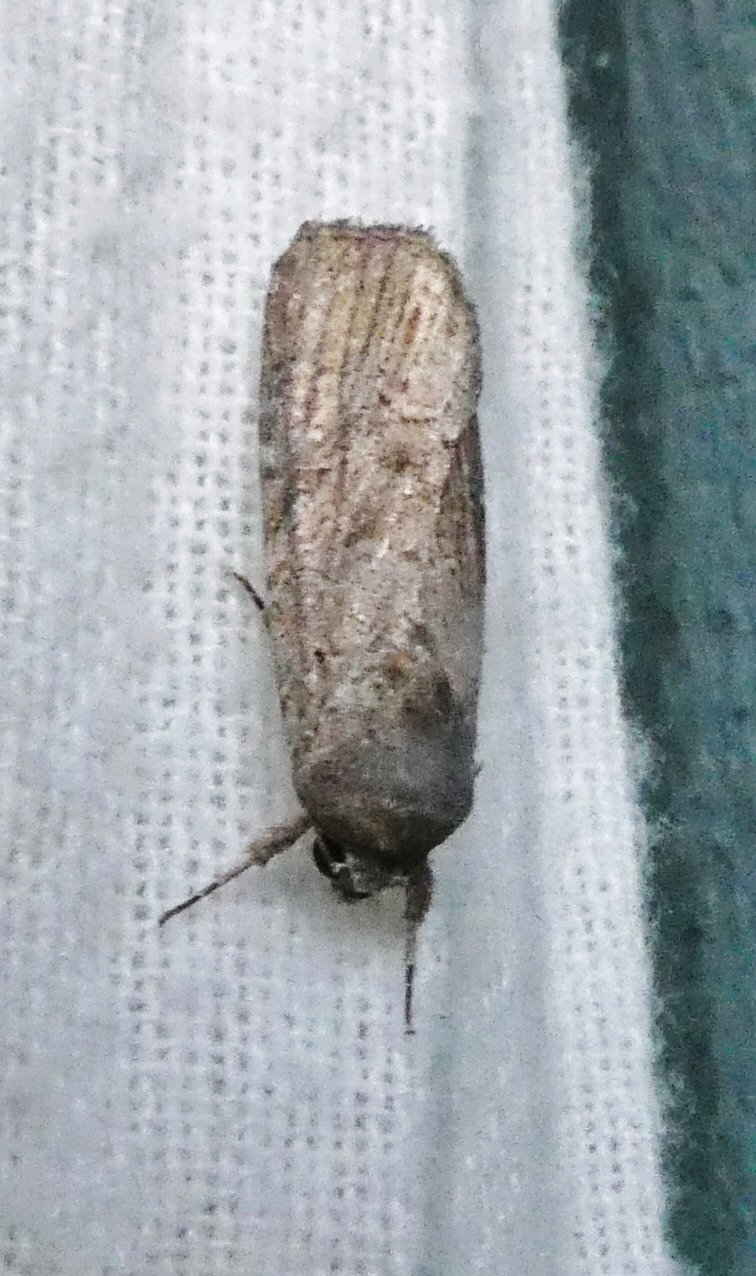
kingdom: Animalia
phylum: Arthropoda
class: Insecta
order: Lepidoptera
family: Noctuidae
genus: Spodoptera
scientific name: Spodoptera frugiperda
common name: Fall armyworm
